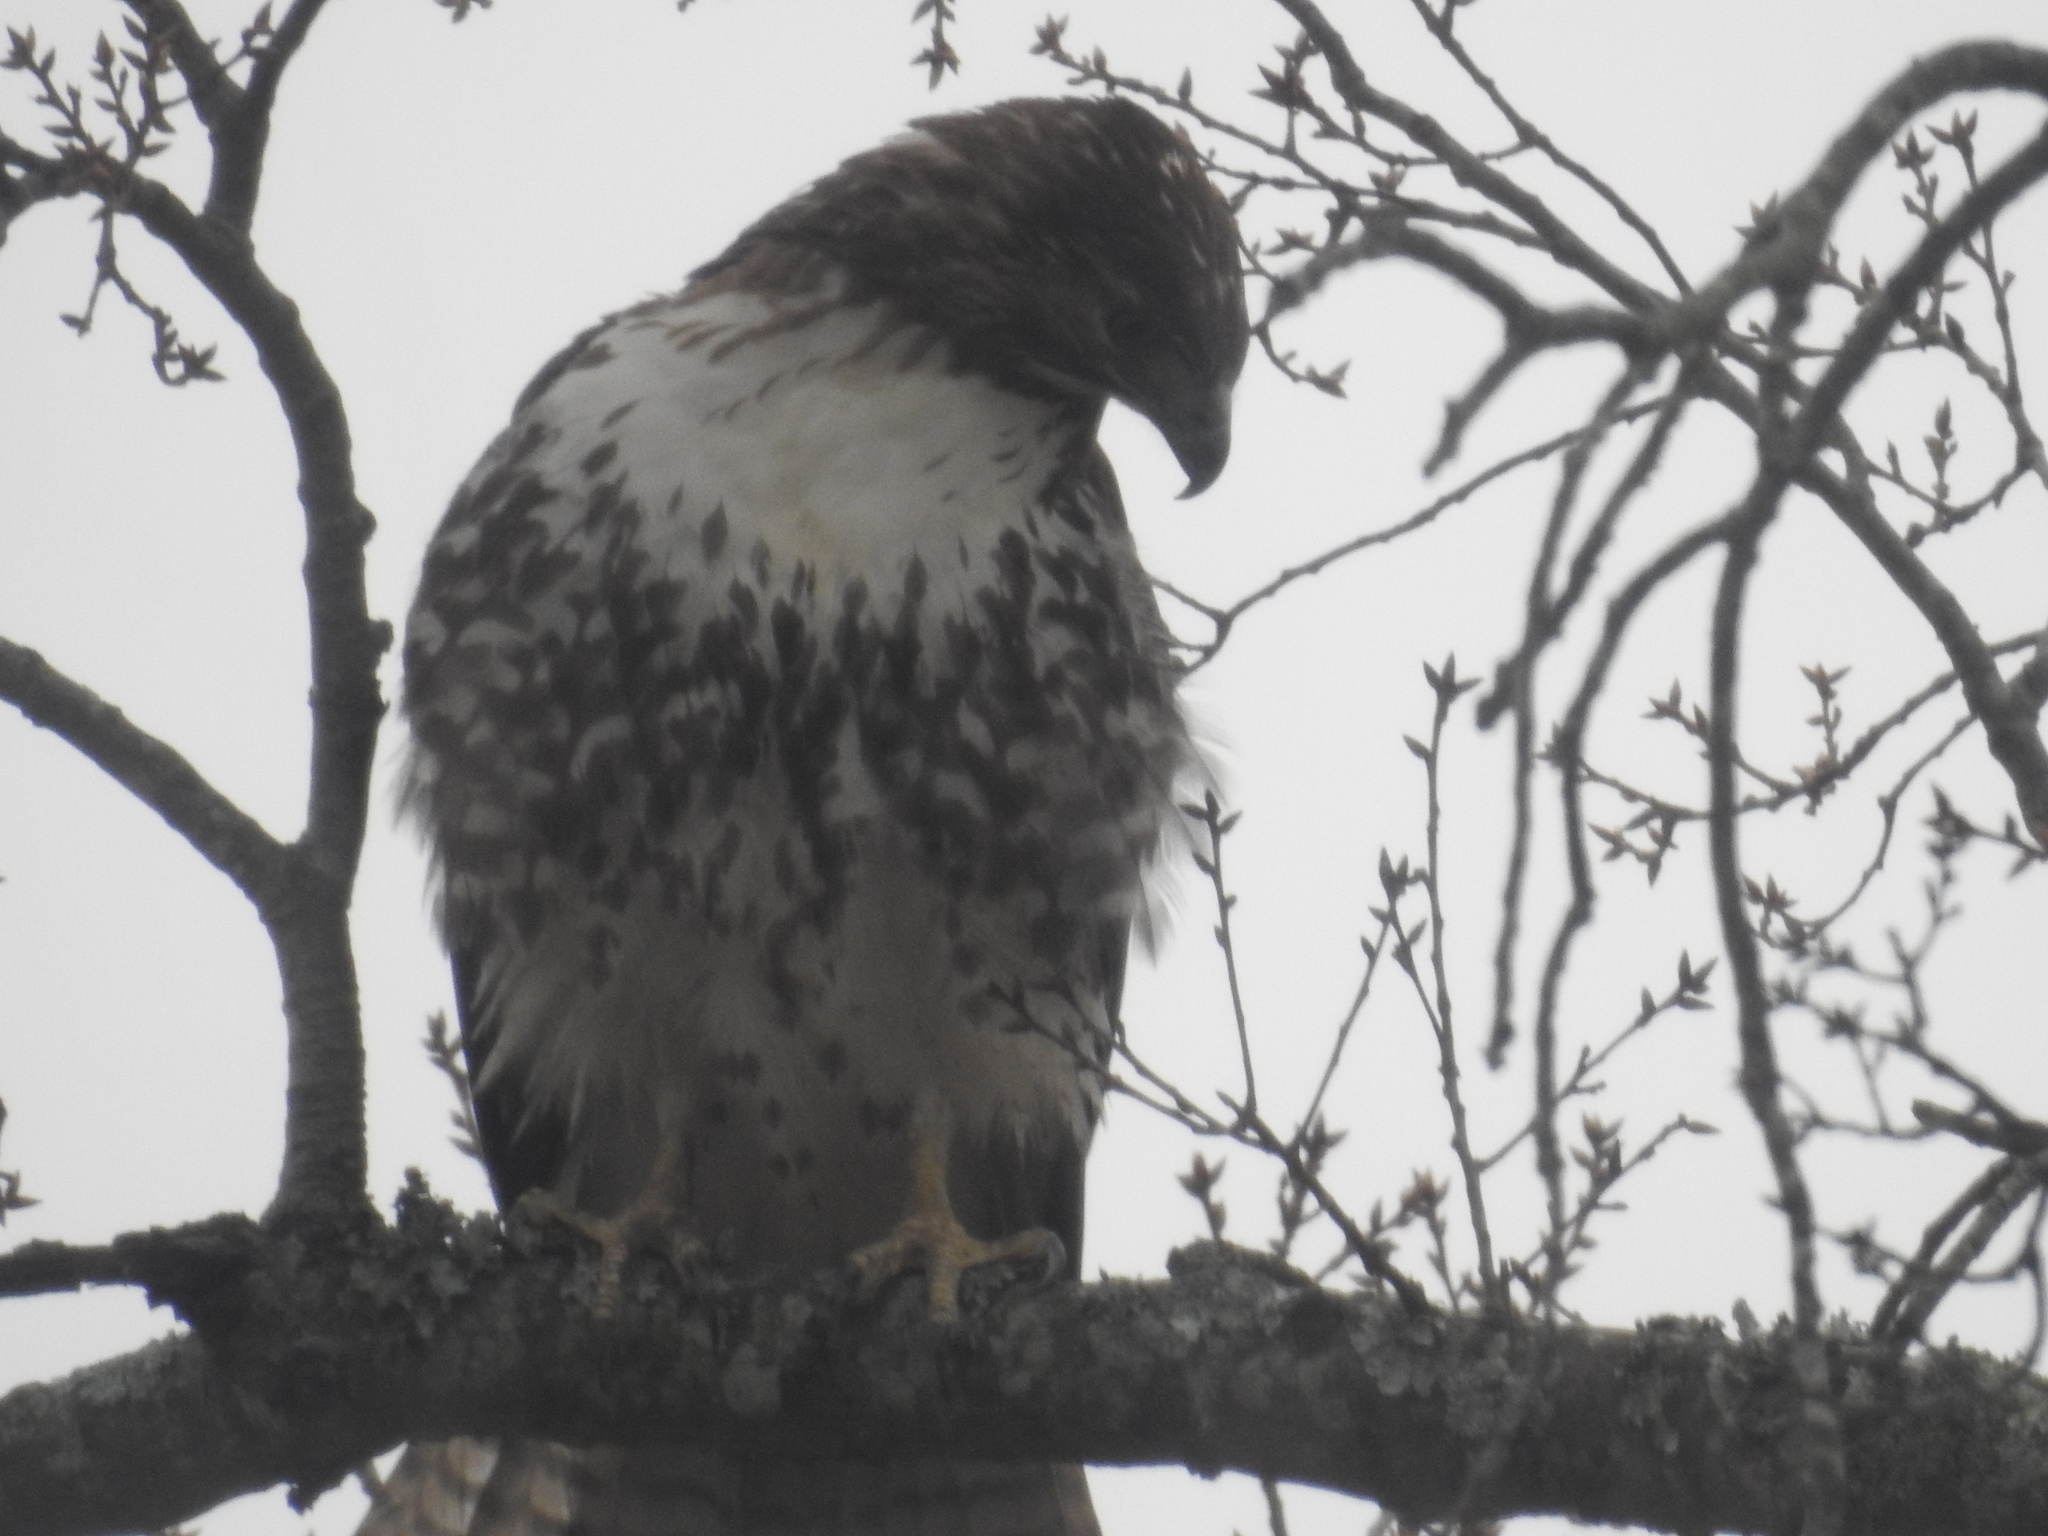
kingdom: Animalia
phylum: Chordata
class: Aves
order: Accipitriformes
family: Accipitridae
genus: Buteo
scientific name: Buteo jamaicensis
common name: Red-tailed hawk
